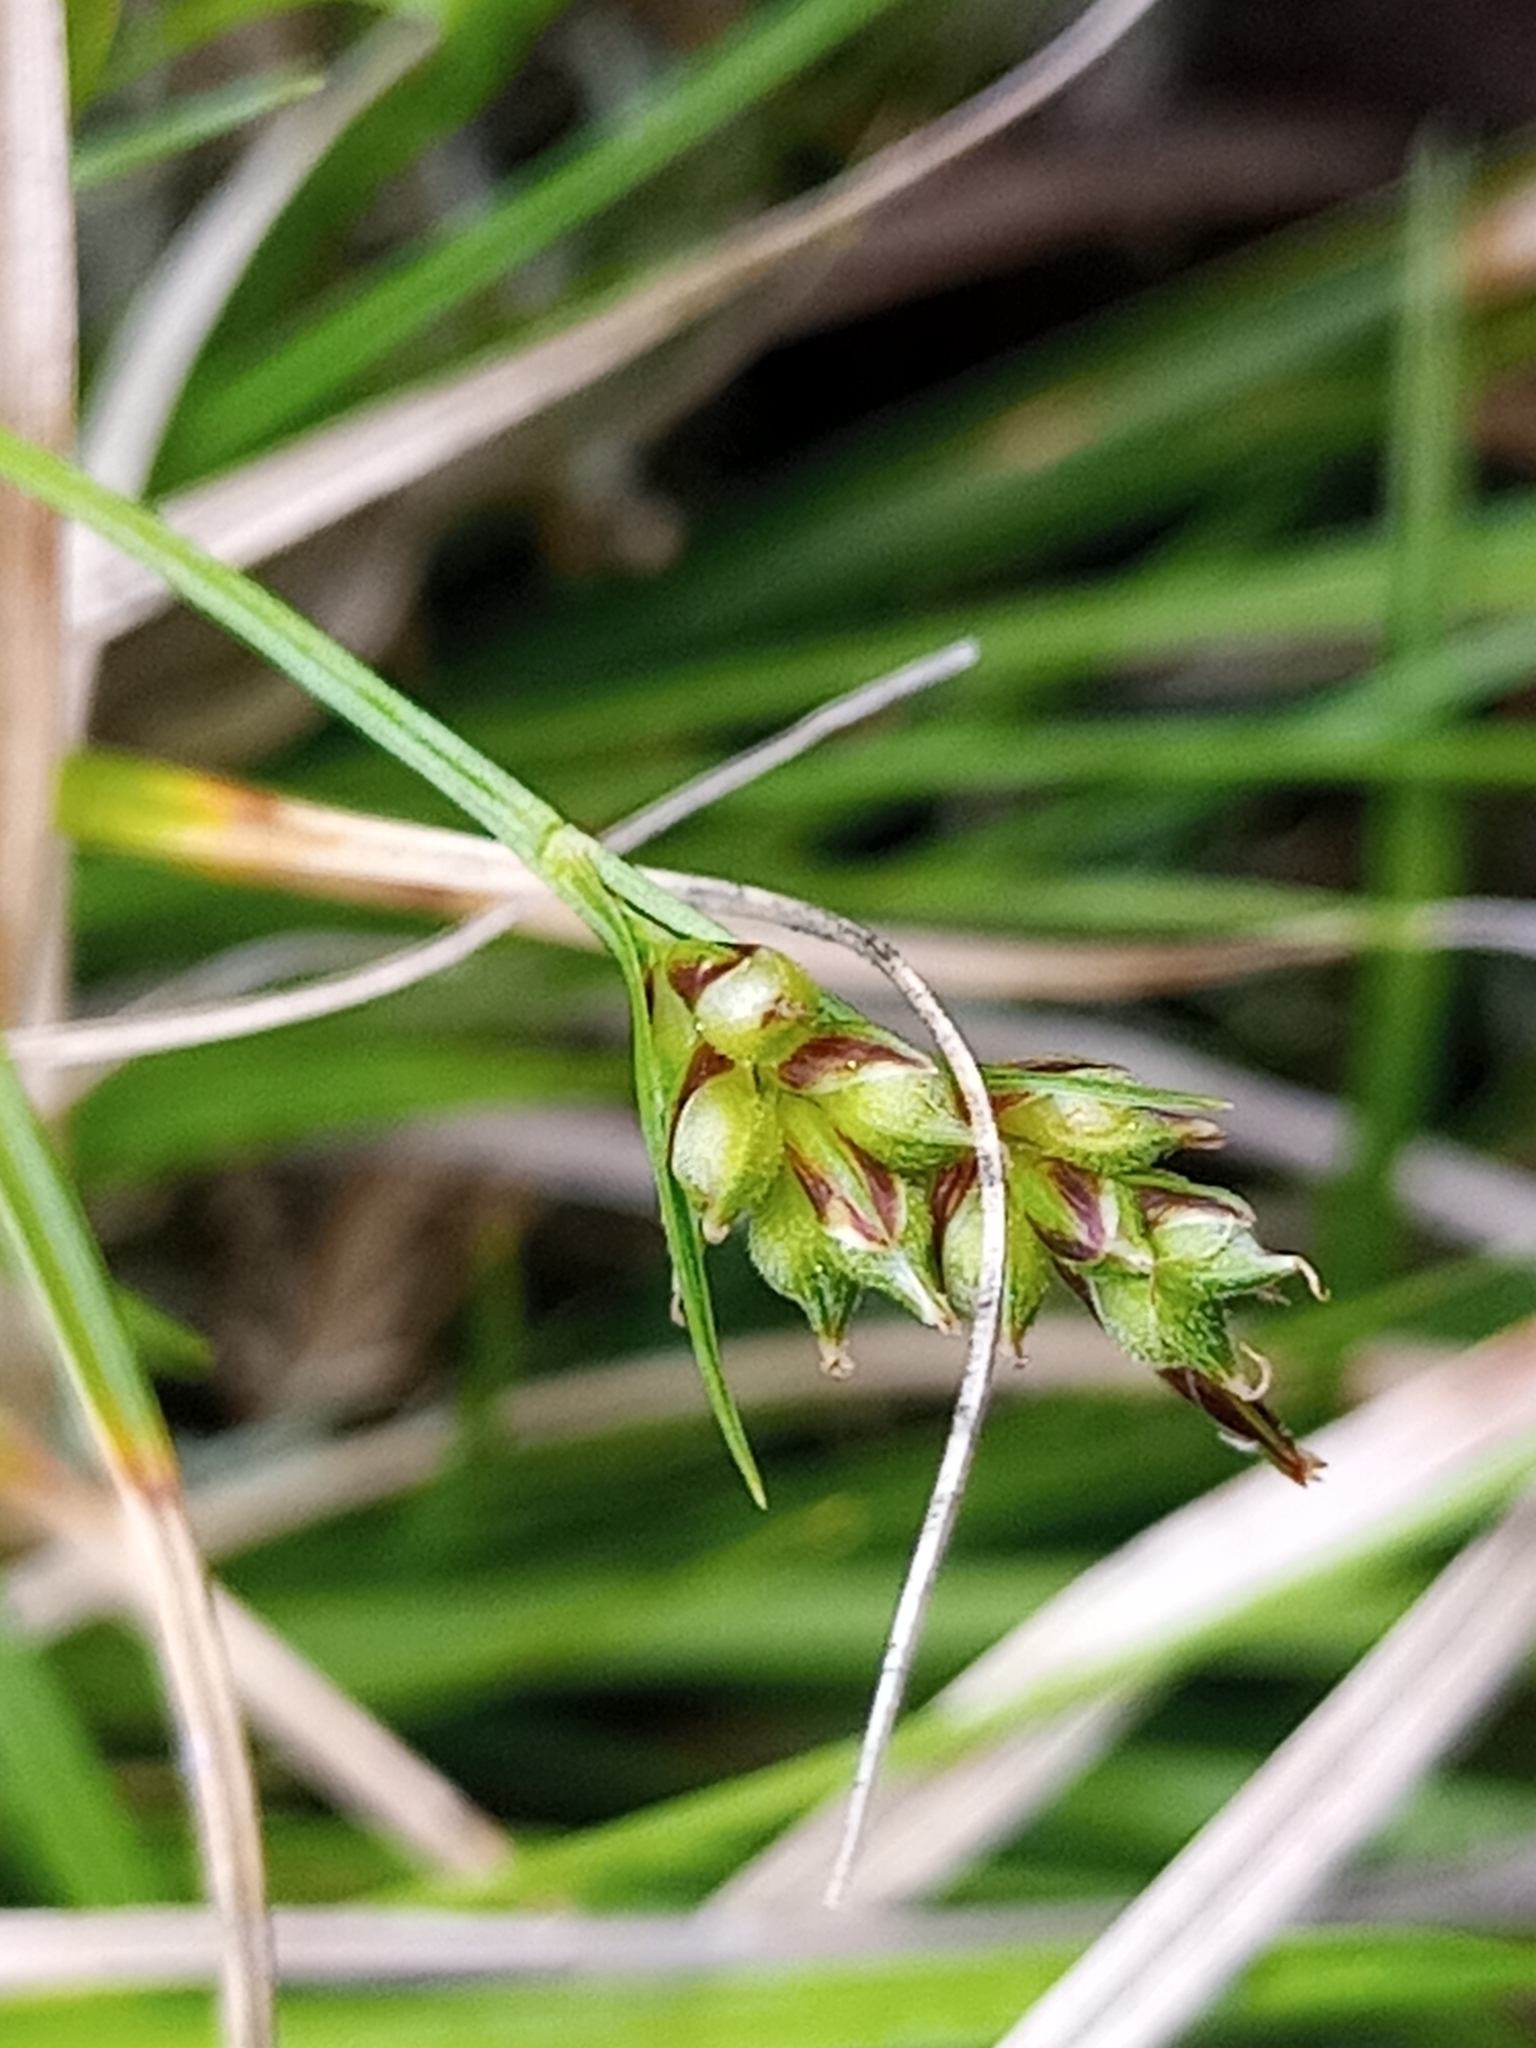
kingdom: Plantae
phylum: Tracheophyta
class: Liliopsida
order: Poales
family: Cyperaceae
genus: Carex
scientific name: Carex deflexa
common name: Bent northern sedge
